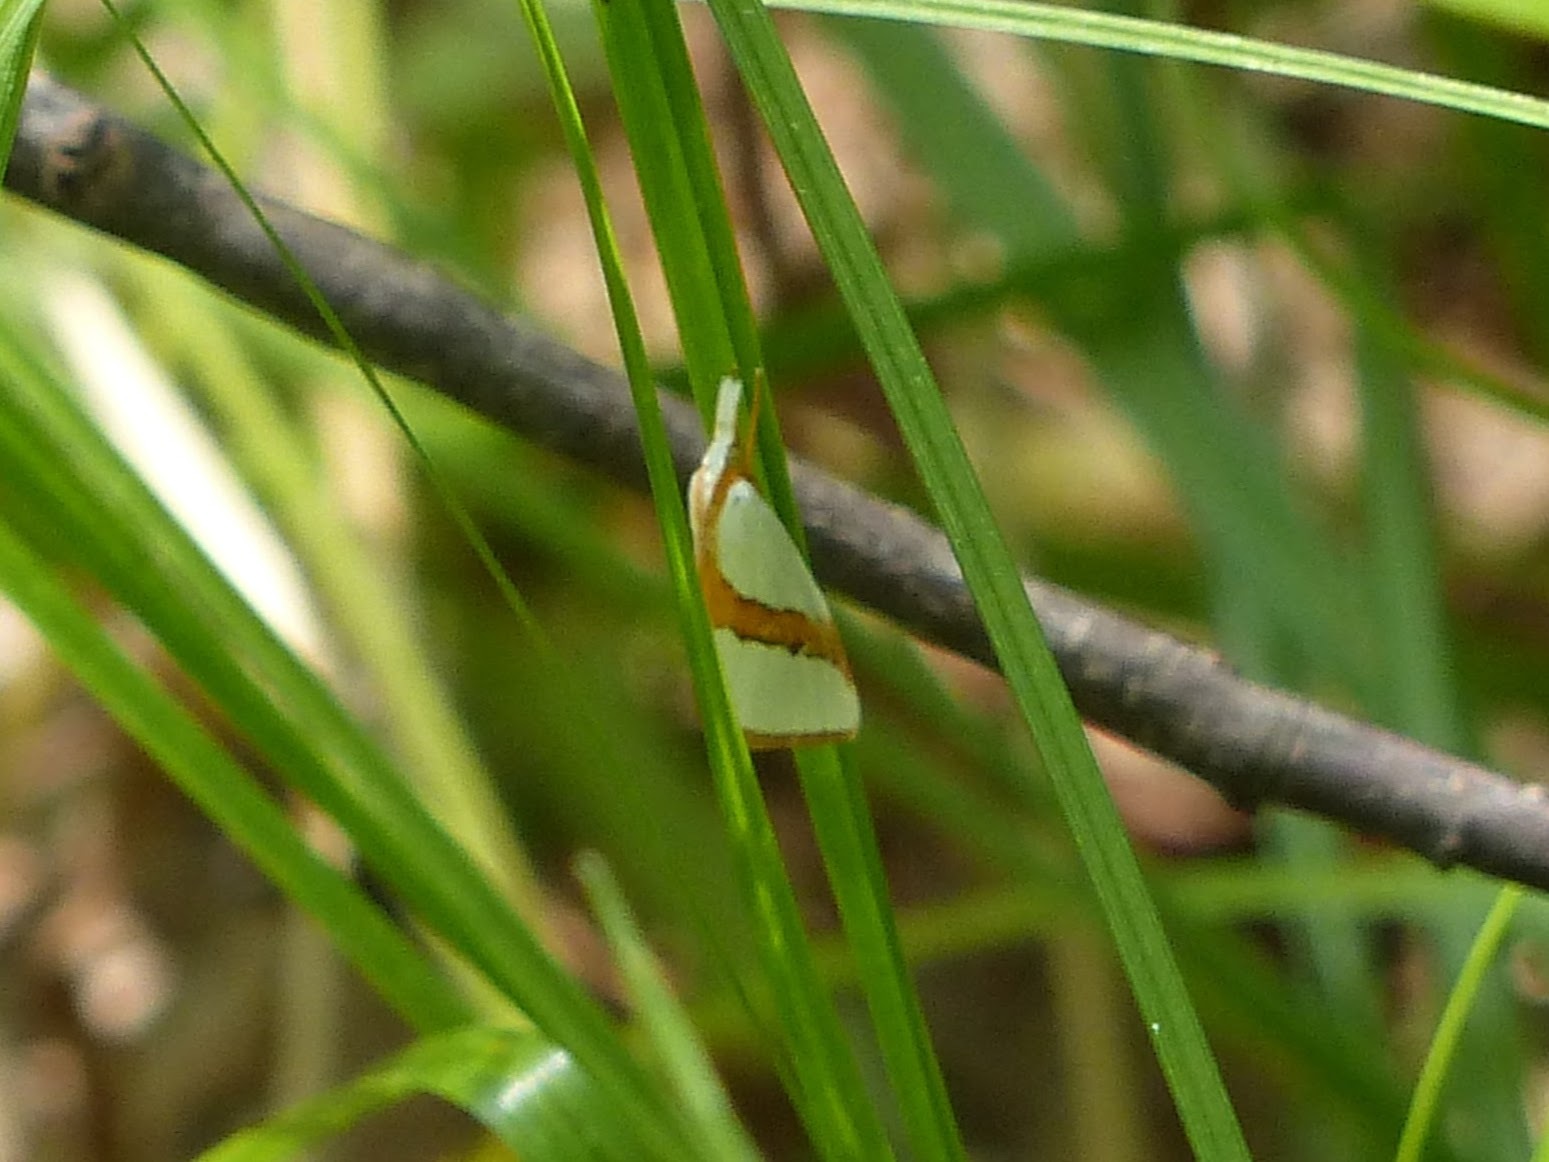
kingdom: Animalia
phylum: Arthropoda
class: Insecta
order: Lepidoptera
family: Crambidae
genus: Vaxi
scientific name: Vaxi critica
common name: Straight-lined vaxi moth
